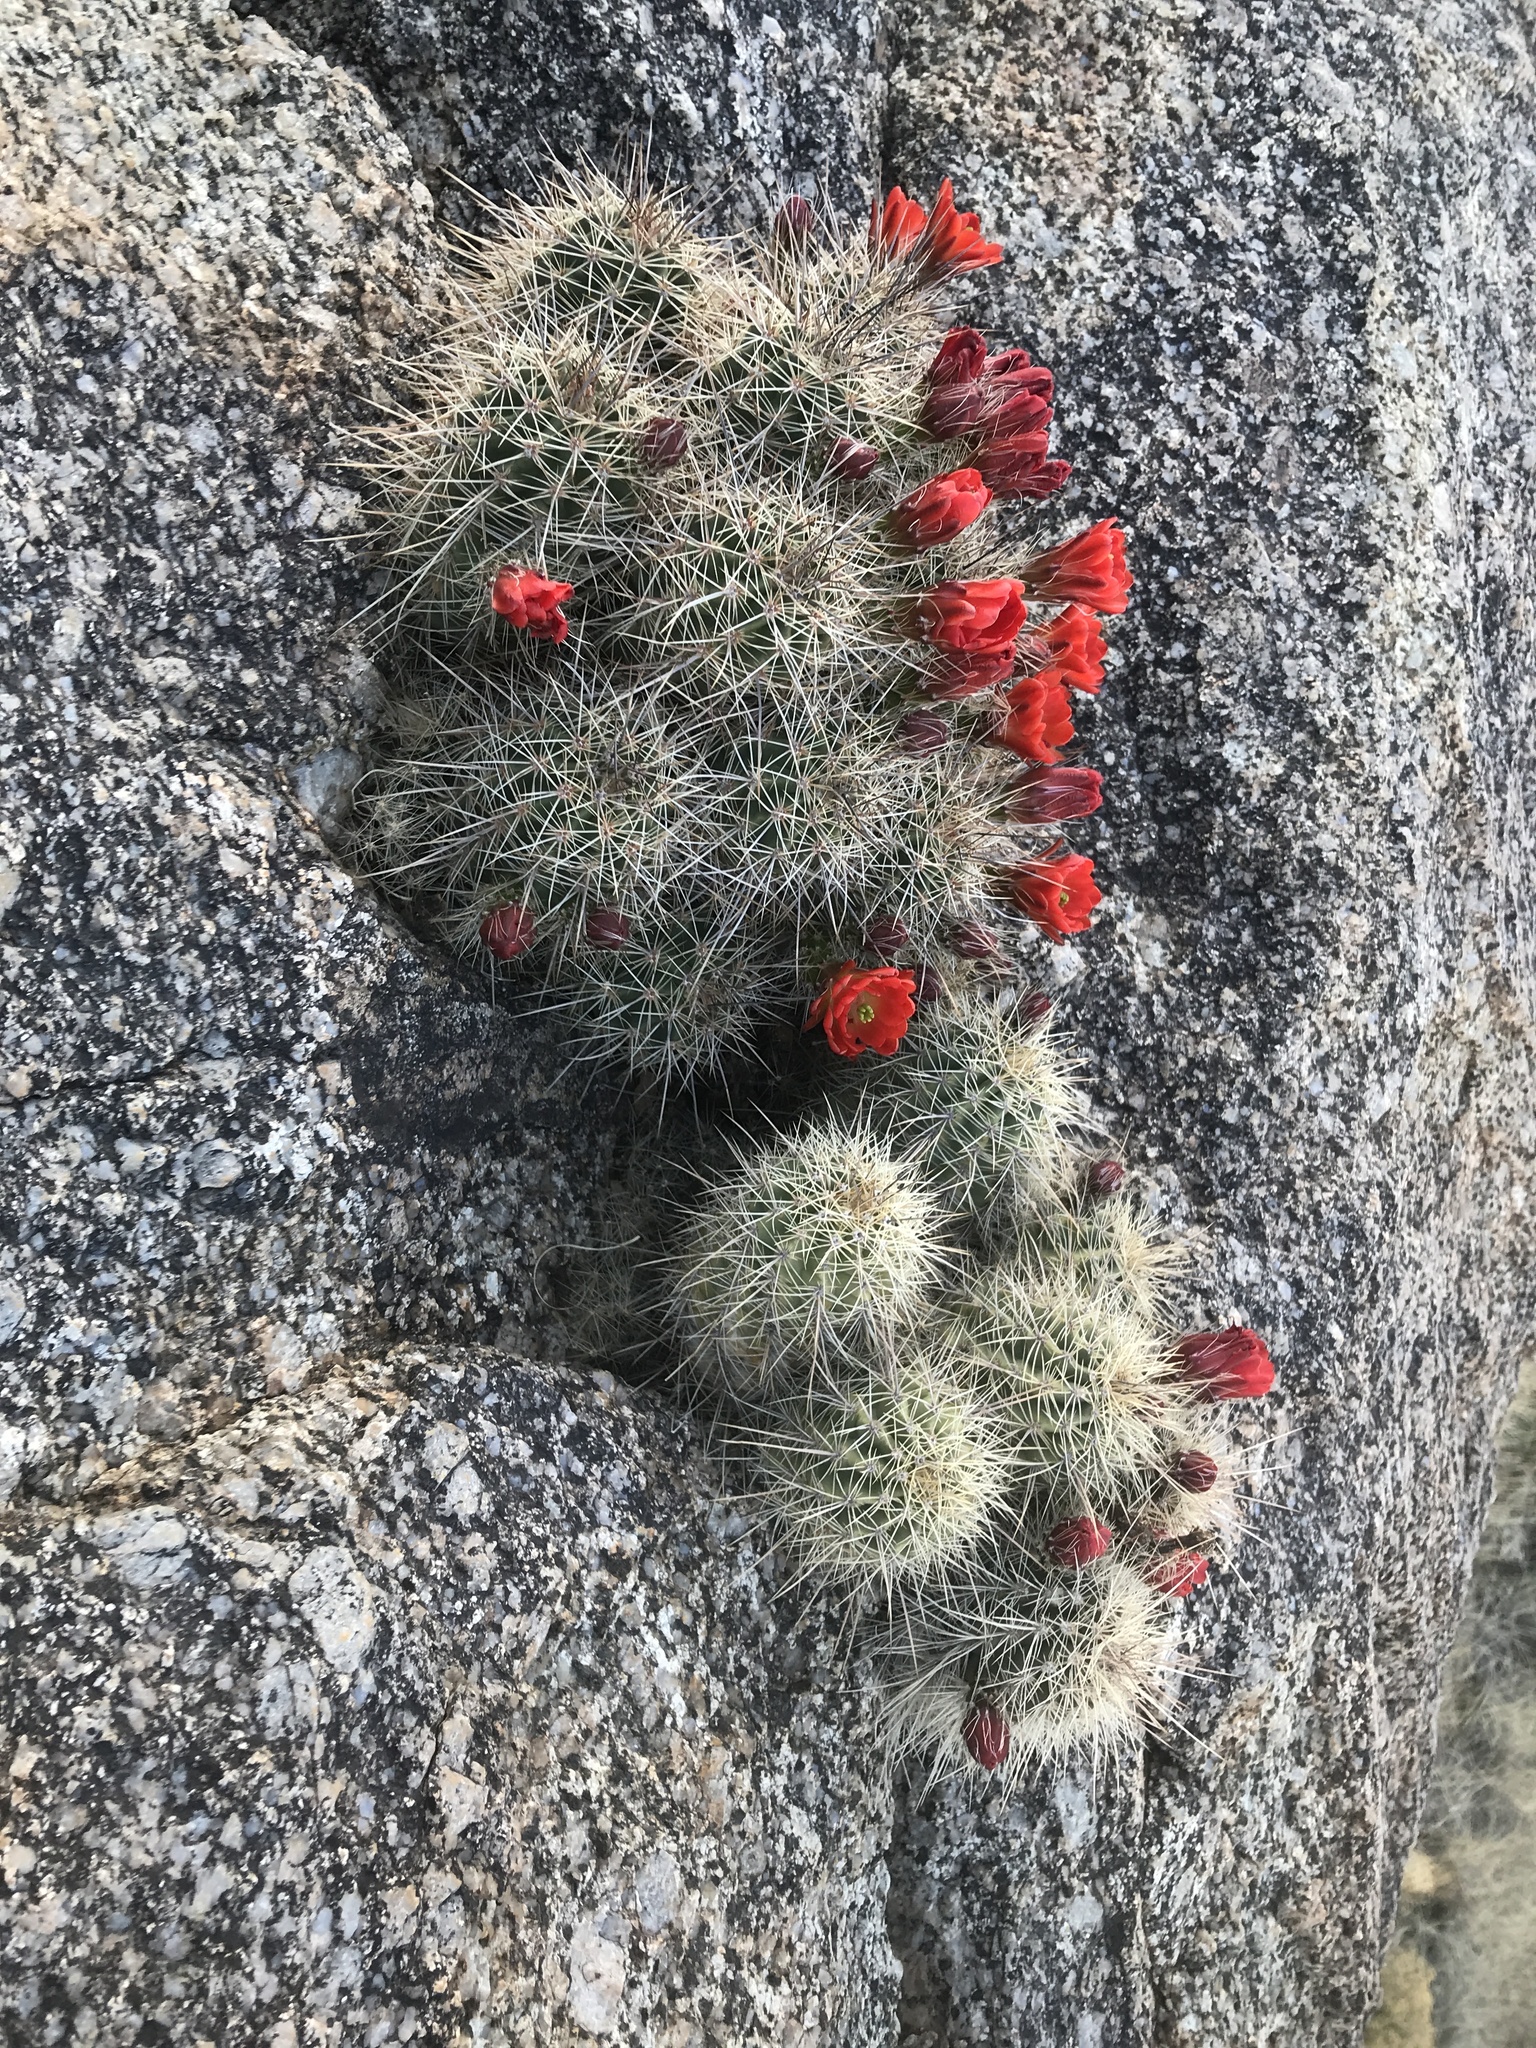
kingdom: Plantae
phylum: Tracheophyta
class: Magnoliopsida
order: Caryophyllales
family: Cactaceae
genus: Echinocereus
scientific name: Echinocereus coccineus
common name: Scarlet hedgehog cactus
